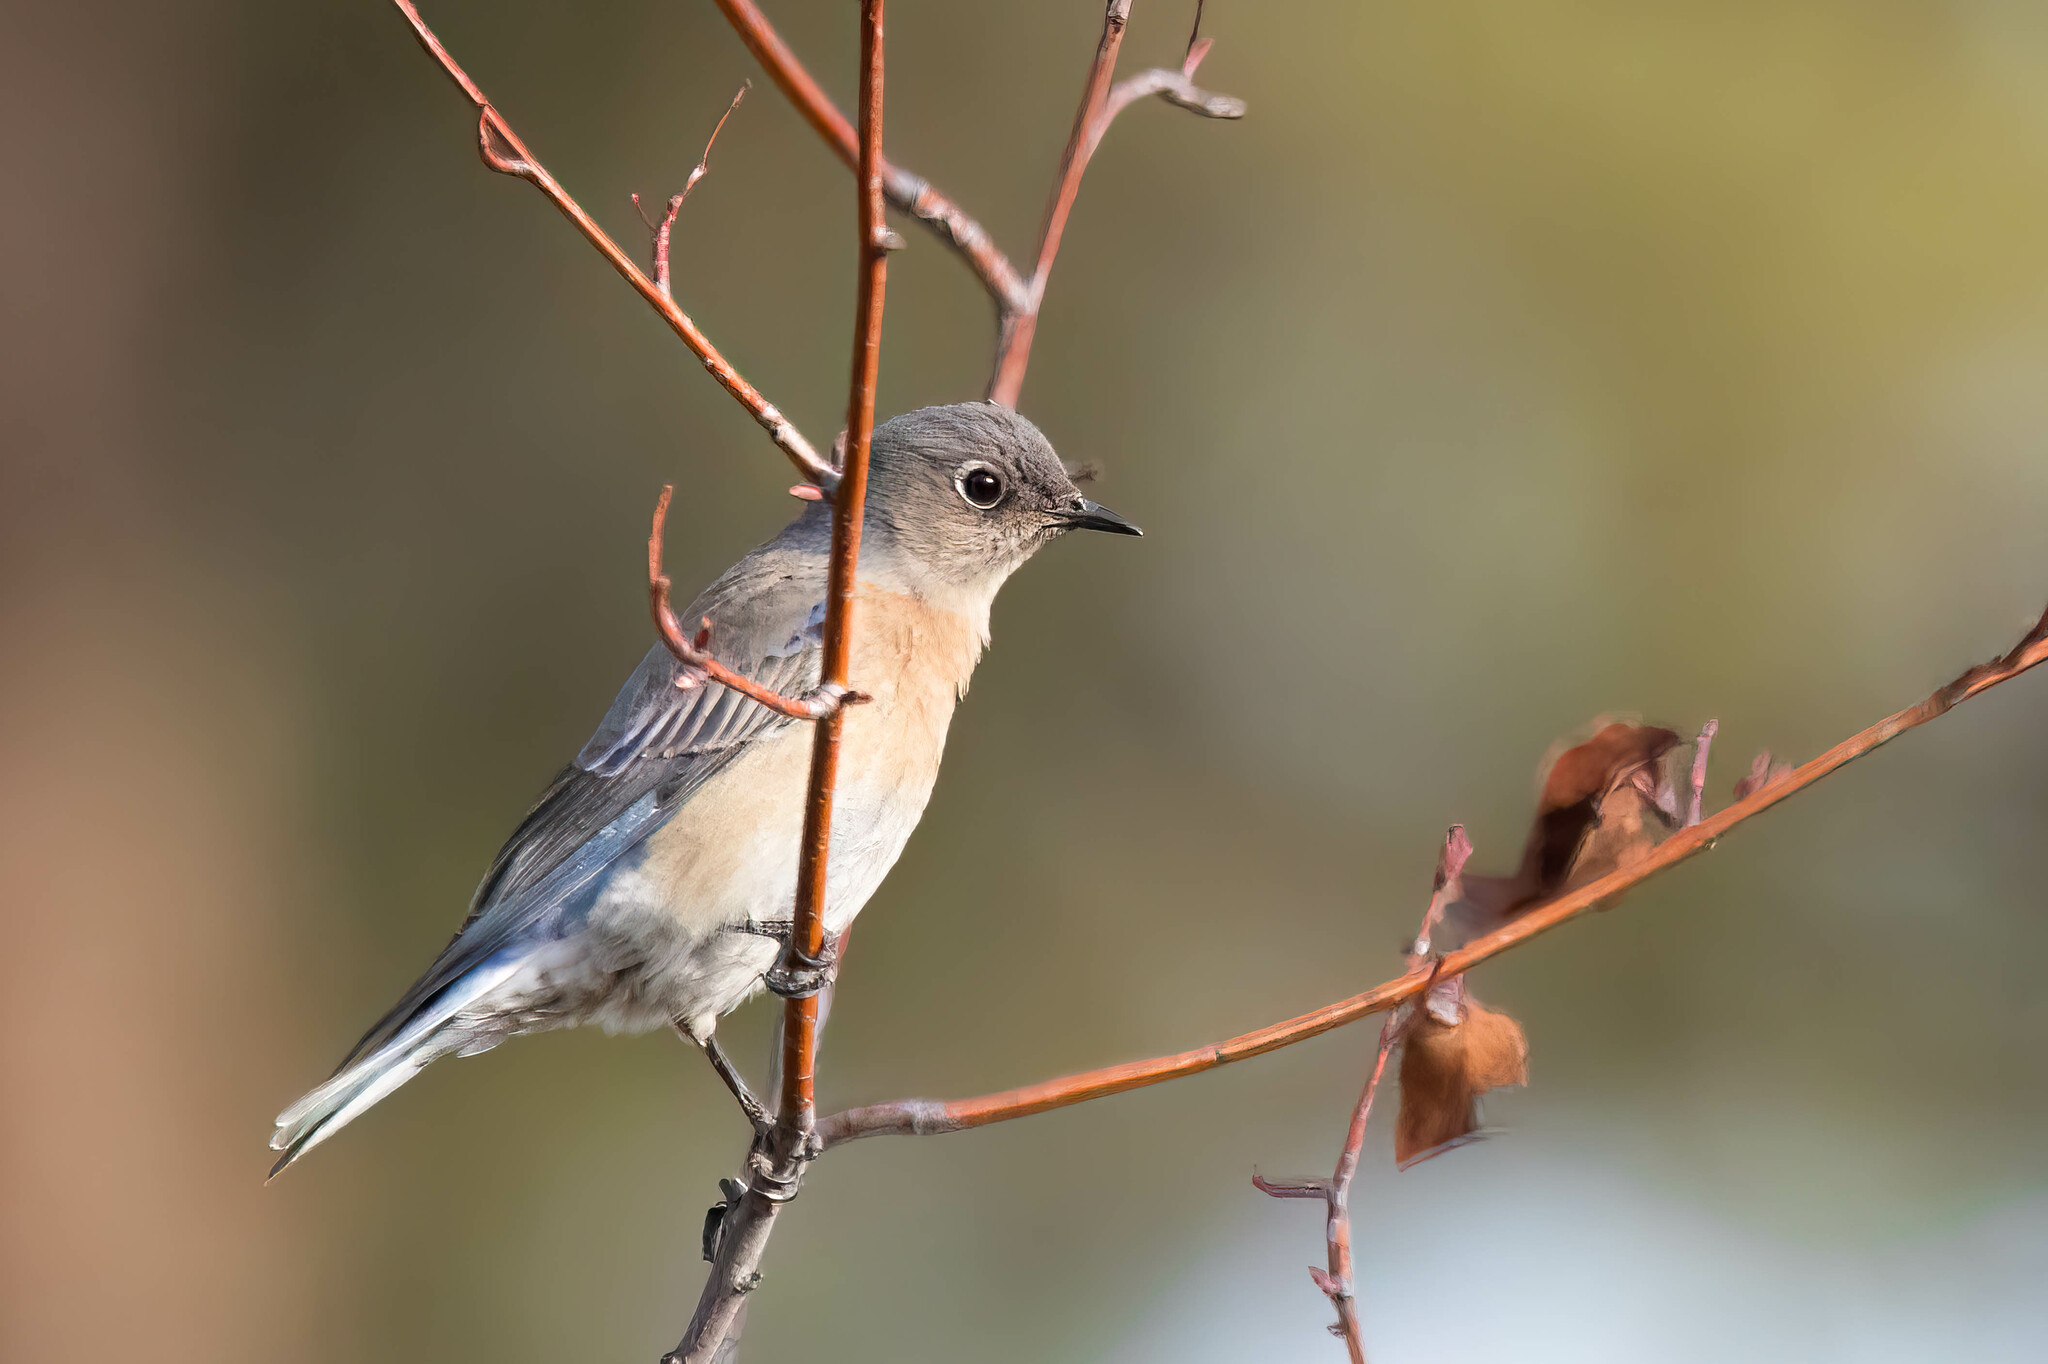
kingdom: Animalia
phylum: Chordata
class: Aves
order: Passeriformes
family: Turdidae
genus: Sialia
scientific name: Sialia mexicana
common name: Western bluebird
